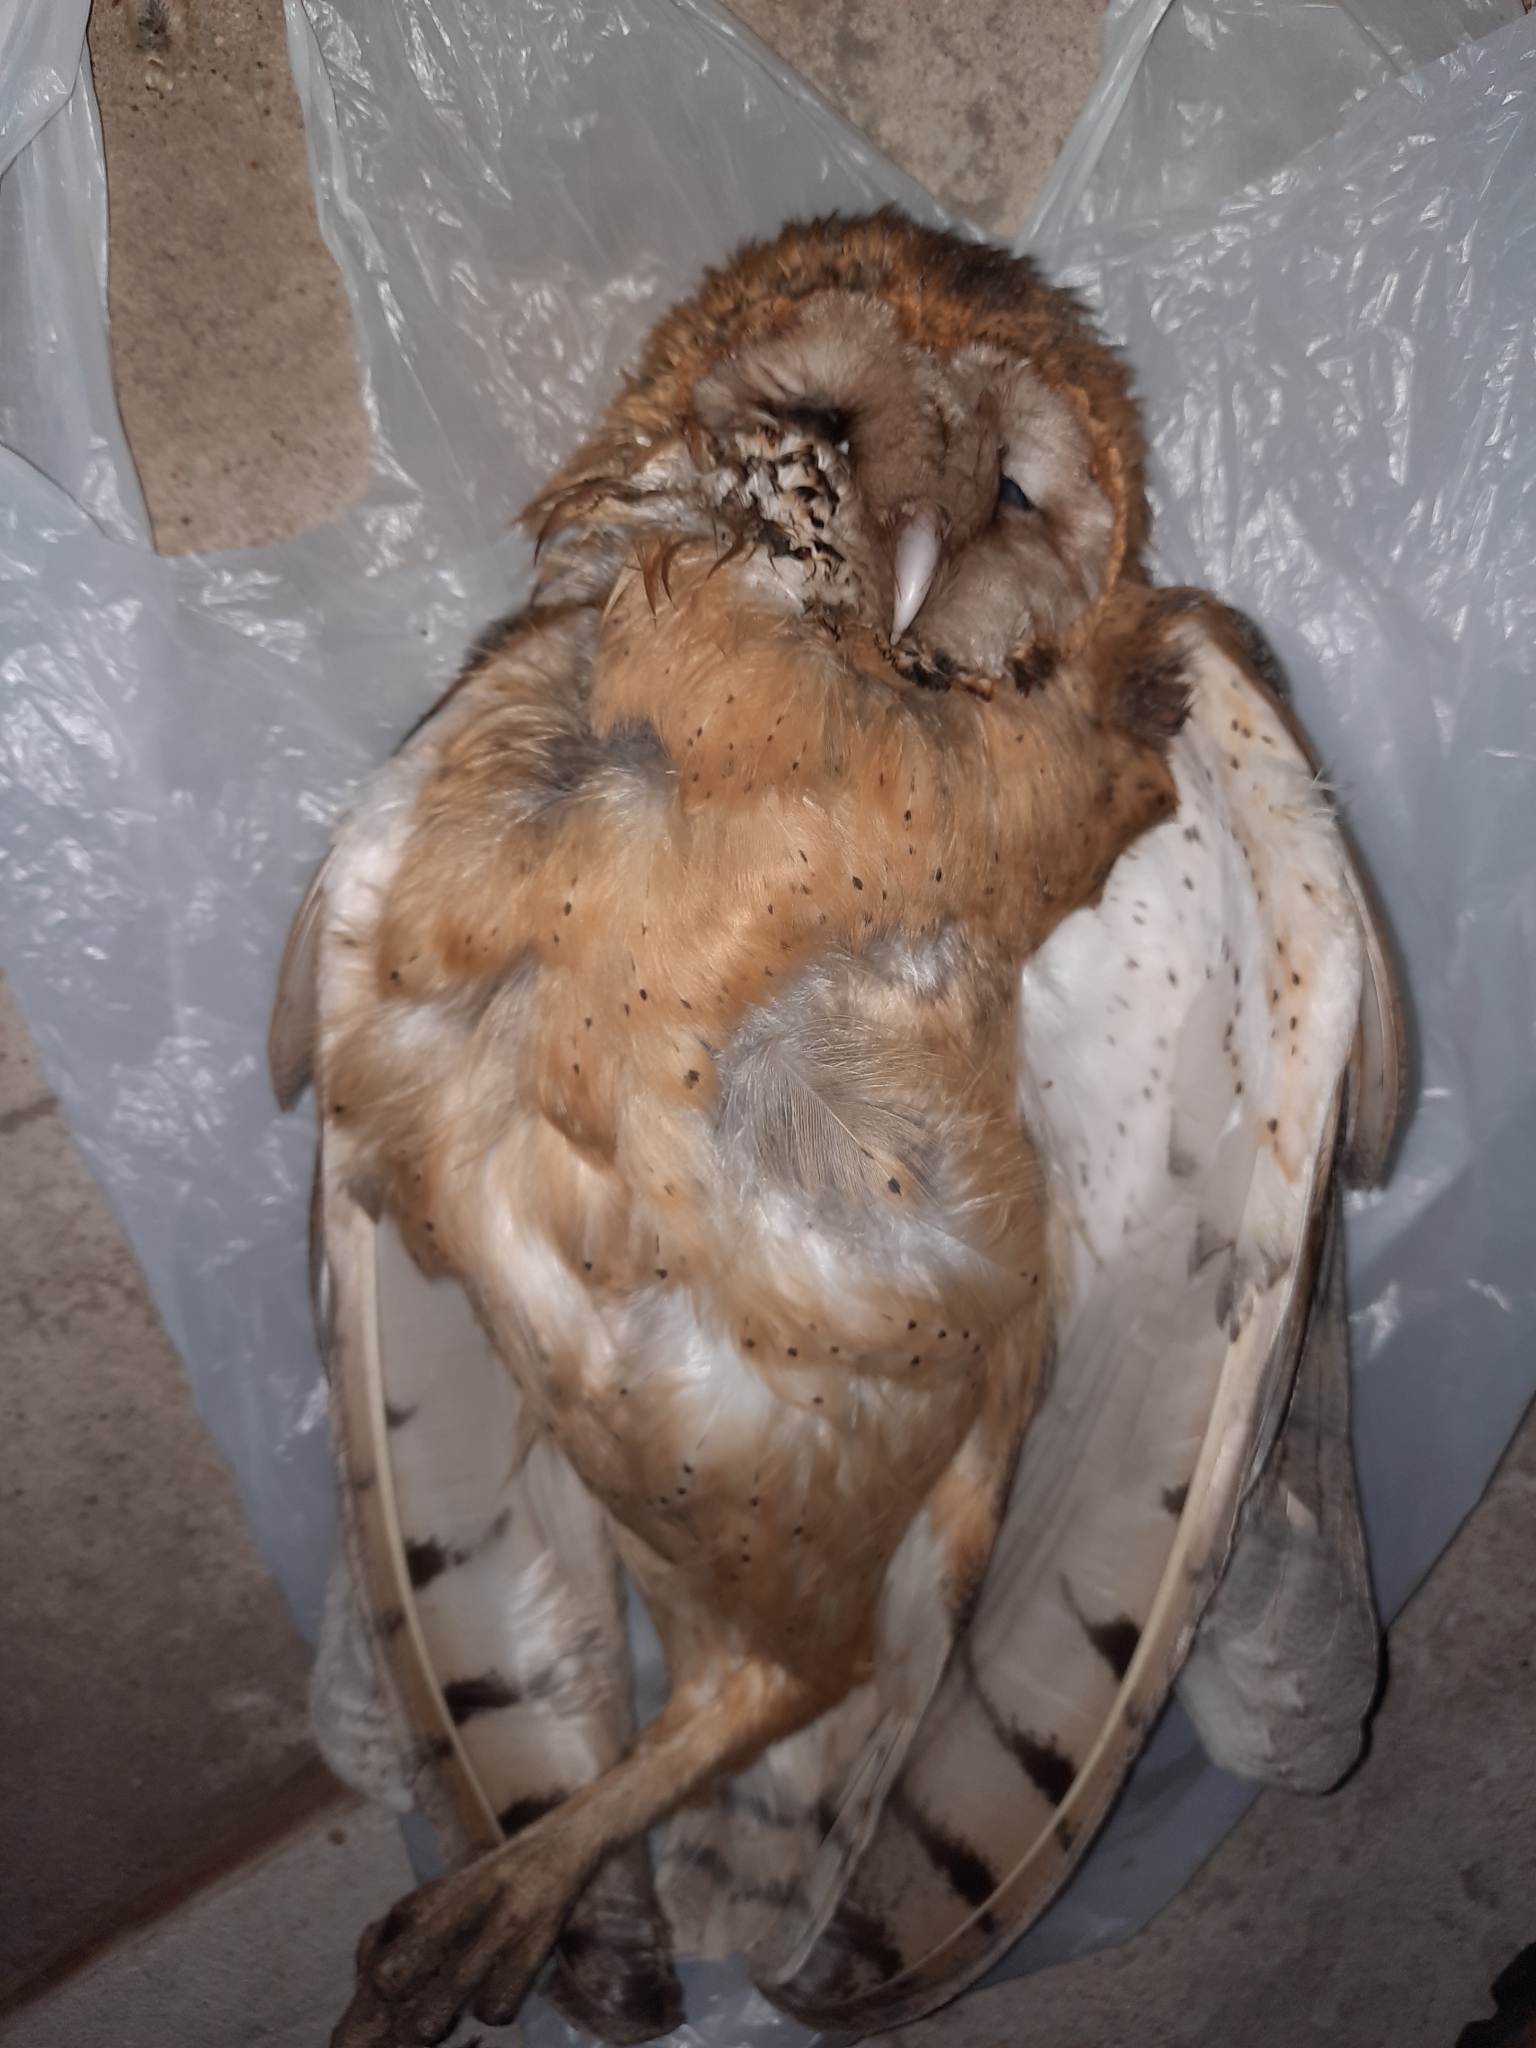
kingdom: Animalia
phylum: Chordata
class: Aves
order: Strigiformes
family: Tytonidae
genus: Tyto
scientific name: Tyto alba
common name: Barn owl
